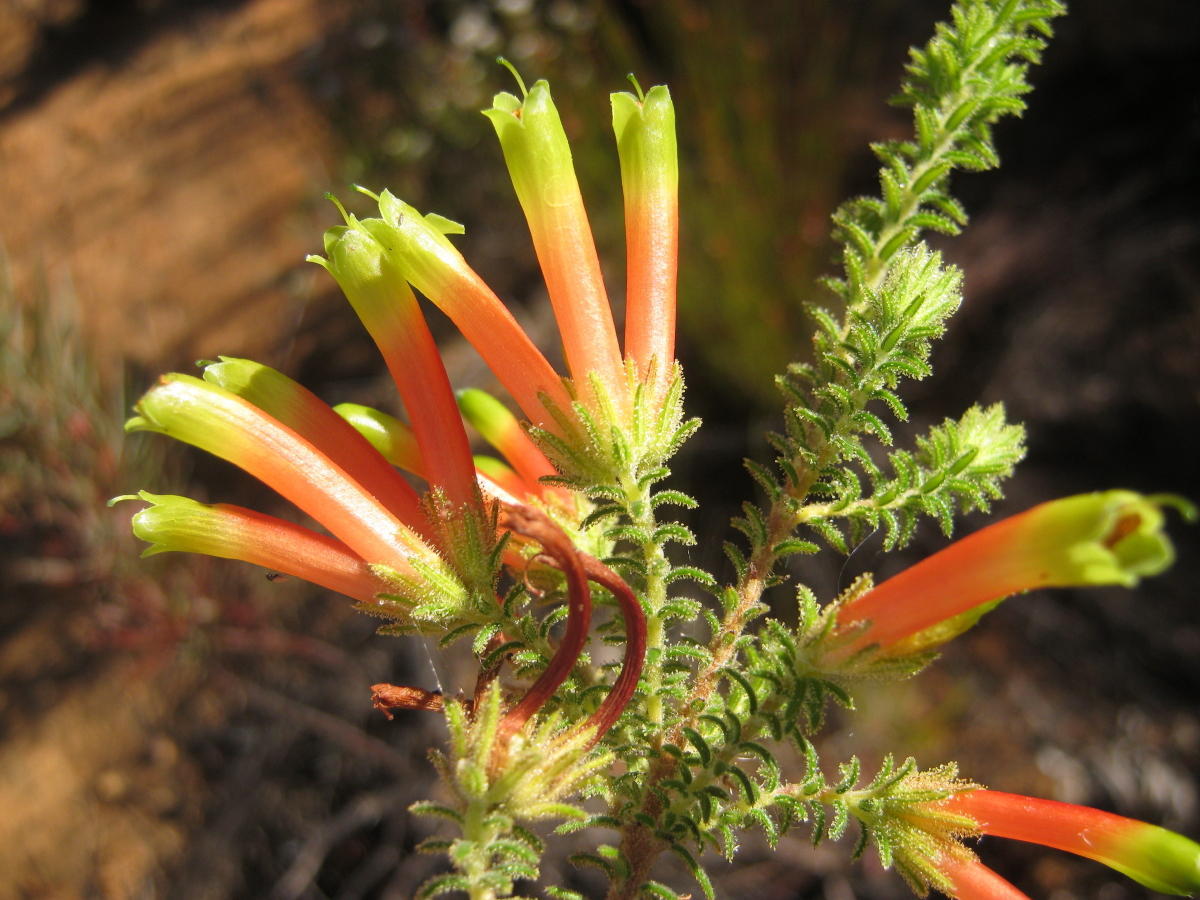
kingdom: Plantae
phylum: Tracheophyta
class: Magnoliopsida
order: Ericales
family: Ericaceae
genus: Erica
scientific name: Erica croceovirens
